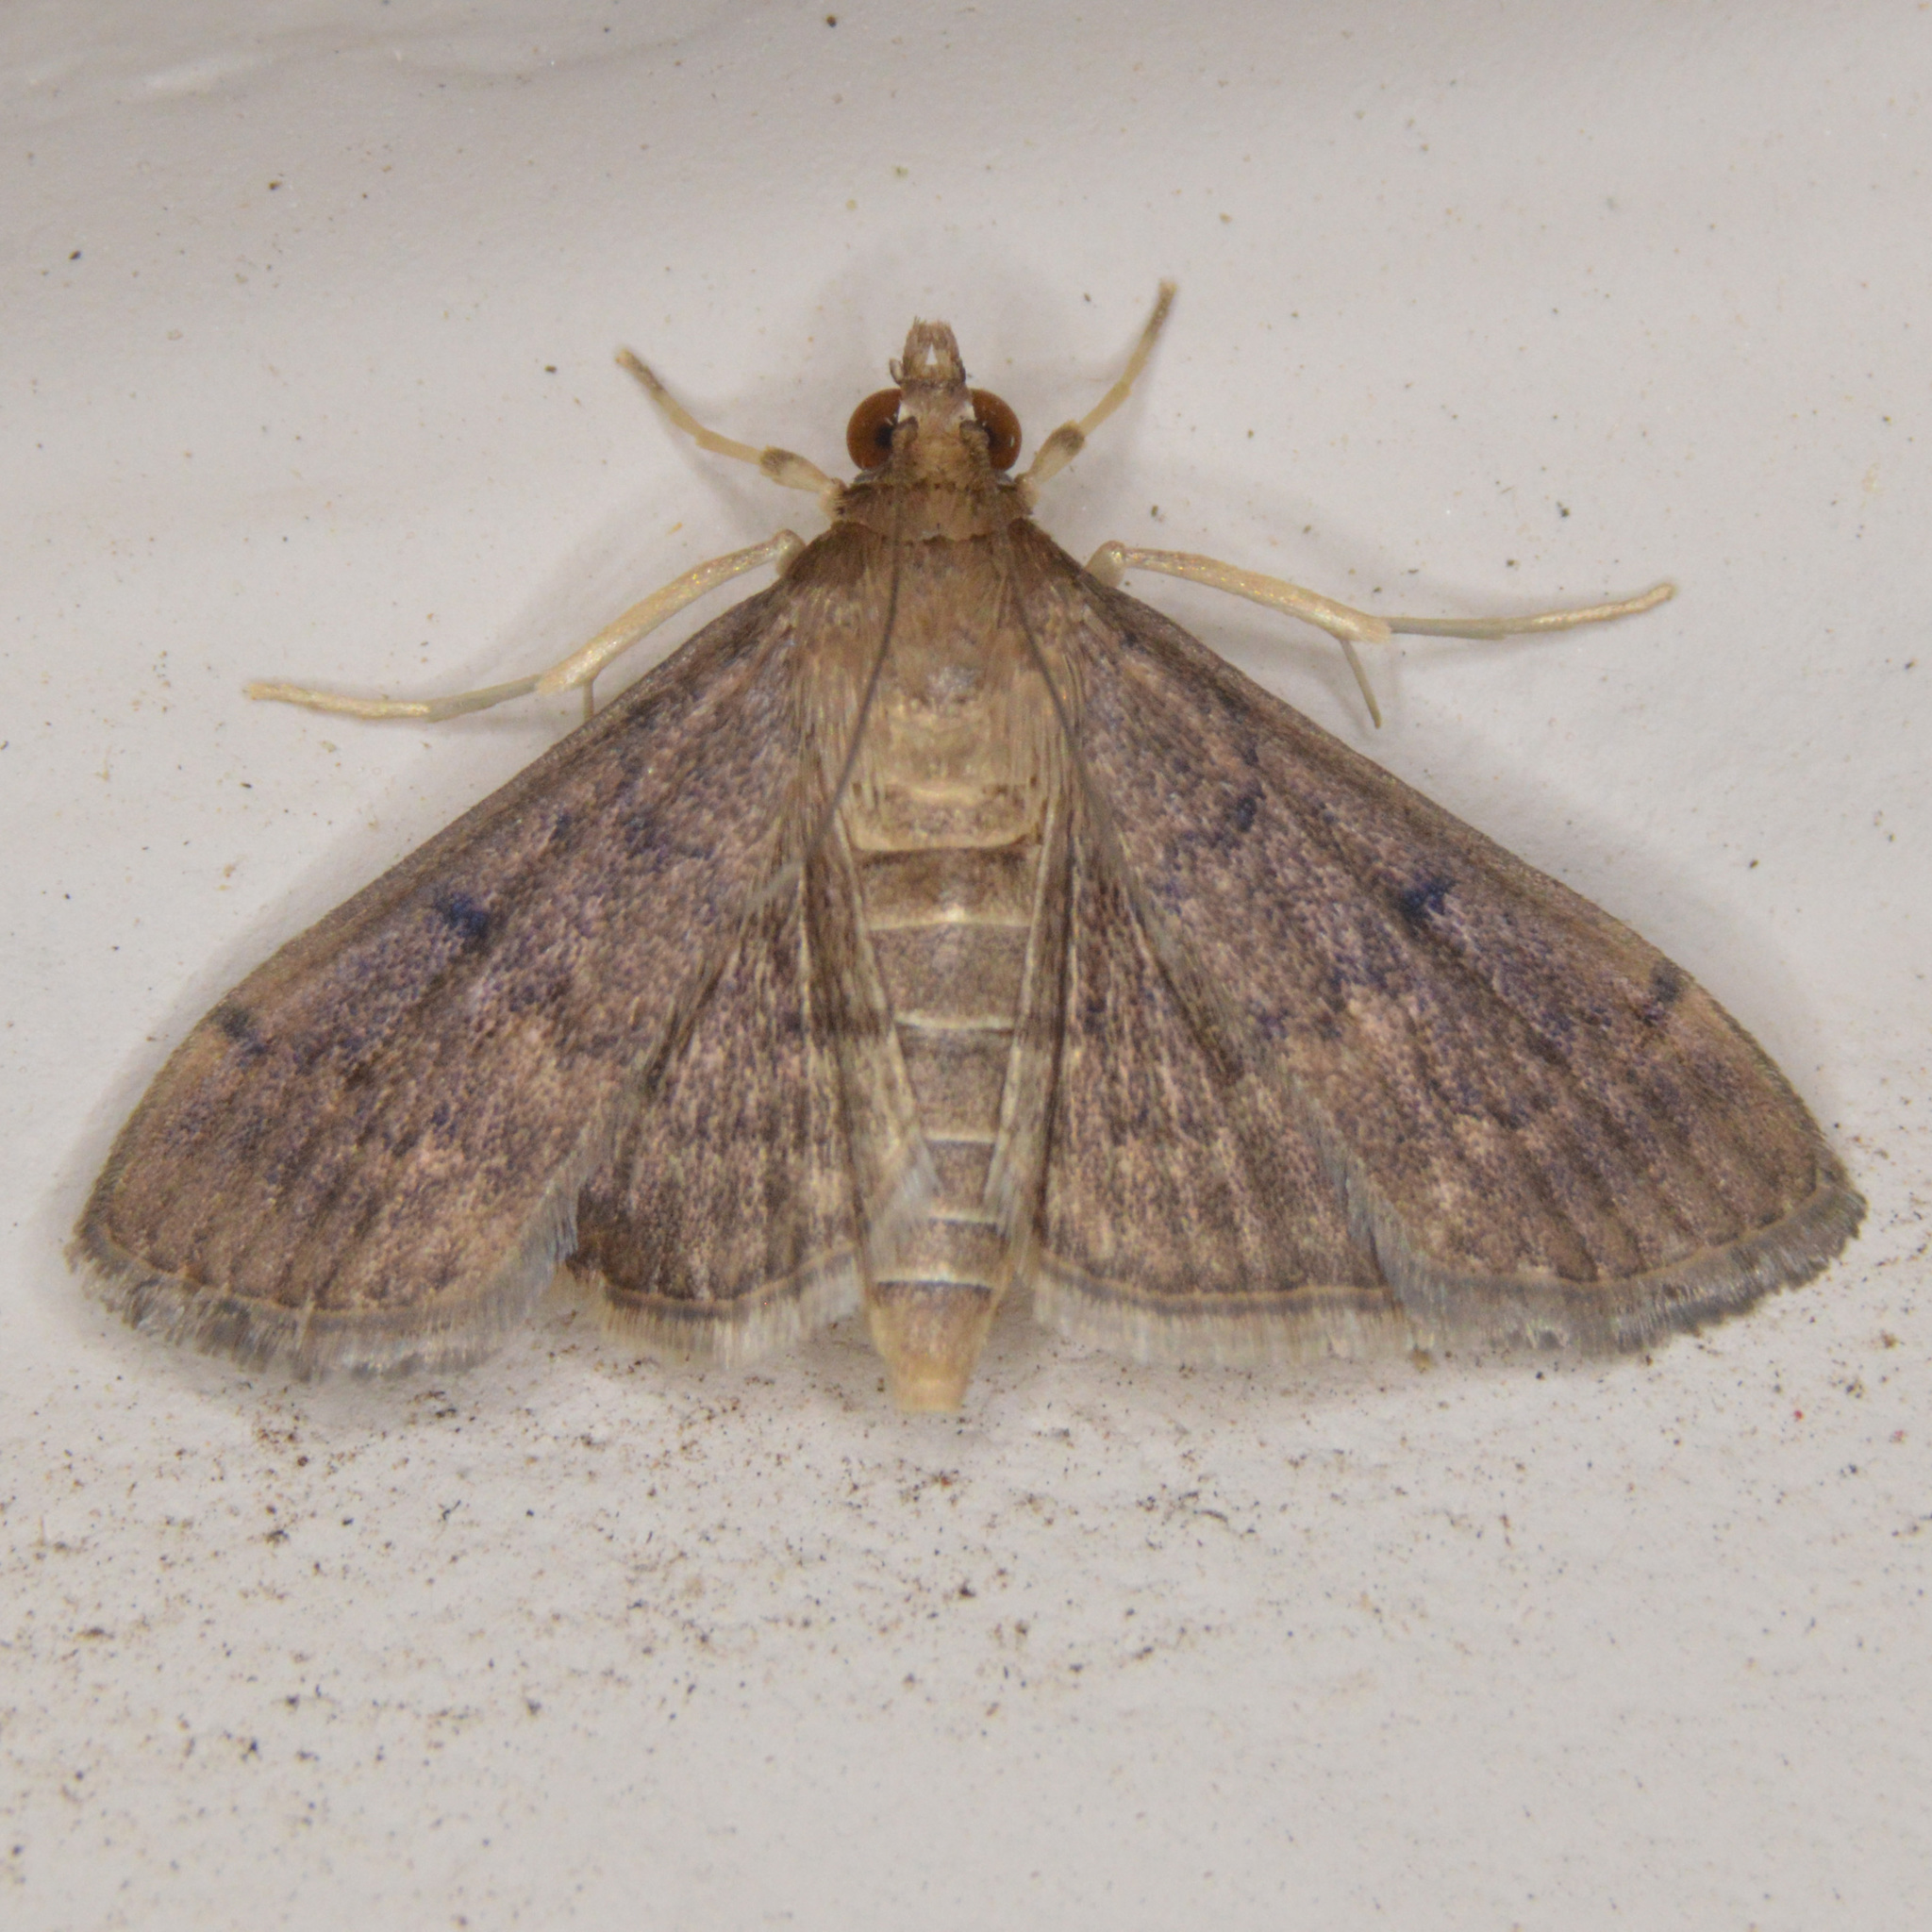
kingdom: Animalia
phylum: Arthropoda
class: Insecta
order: Lepidoptera
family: Crambidae
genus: Herpetogramma
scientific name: Herpetogramma phaeopteralis
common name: Dusky herpetogramma moth
